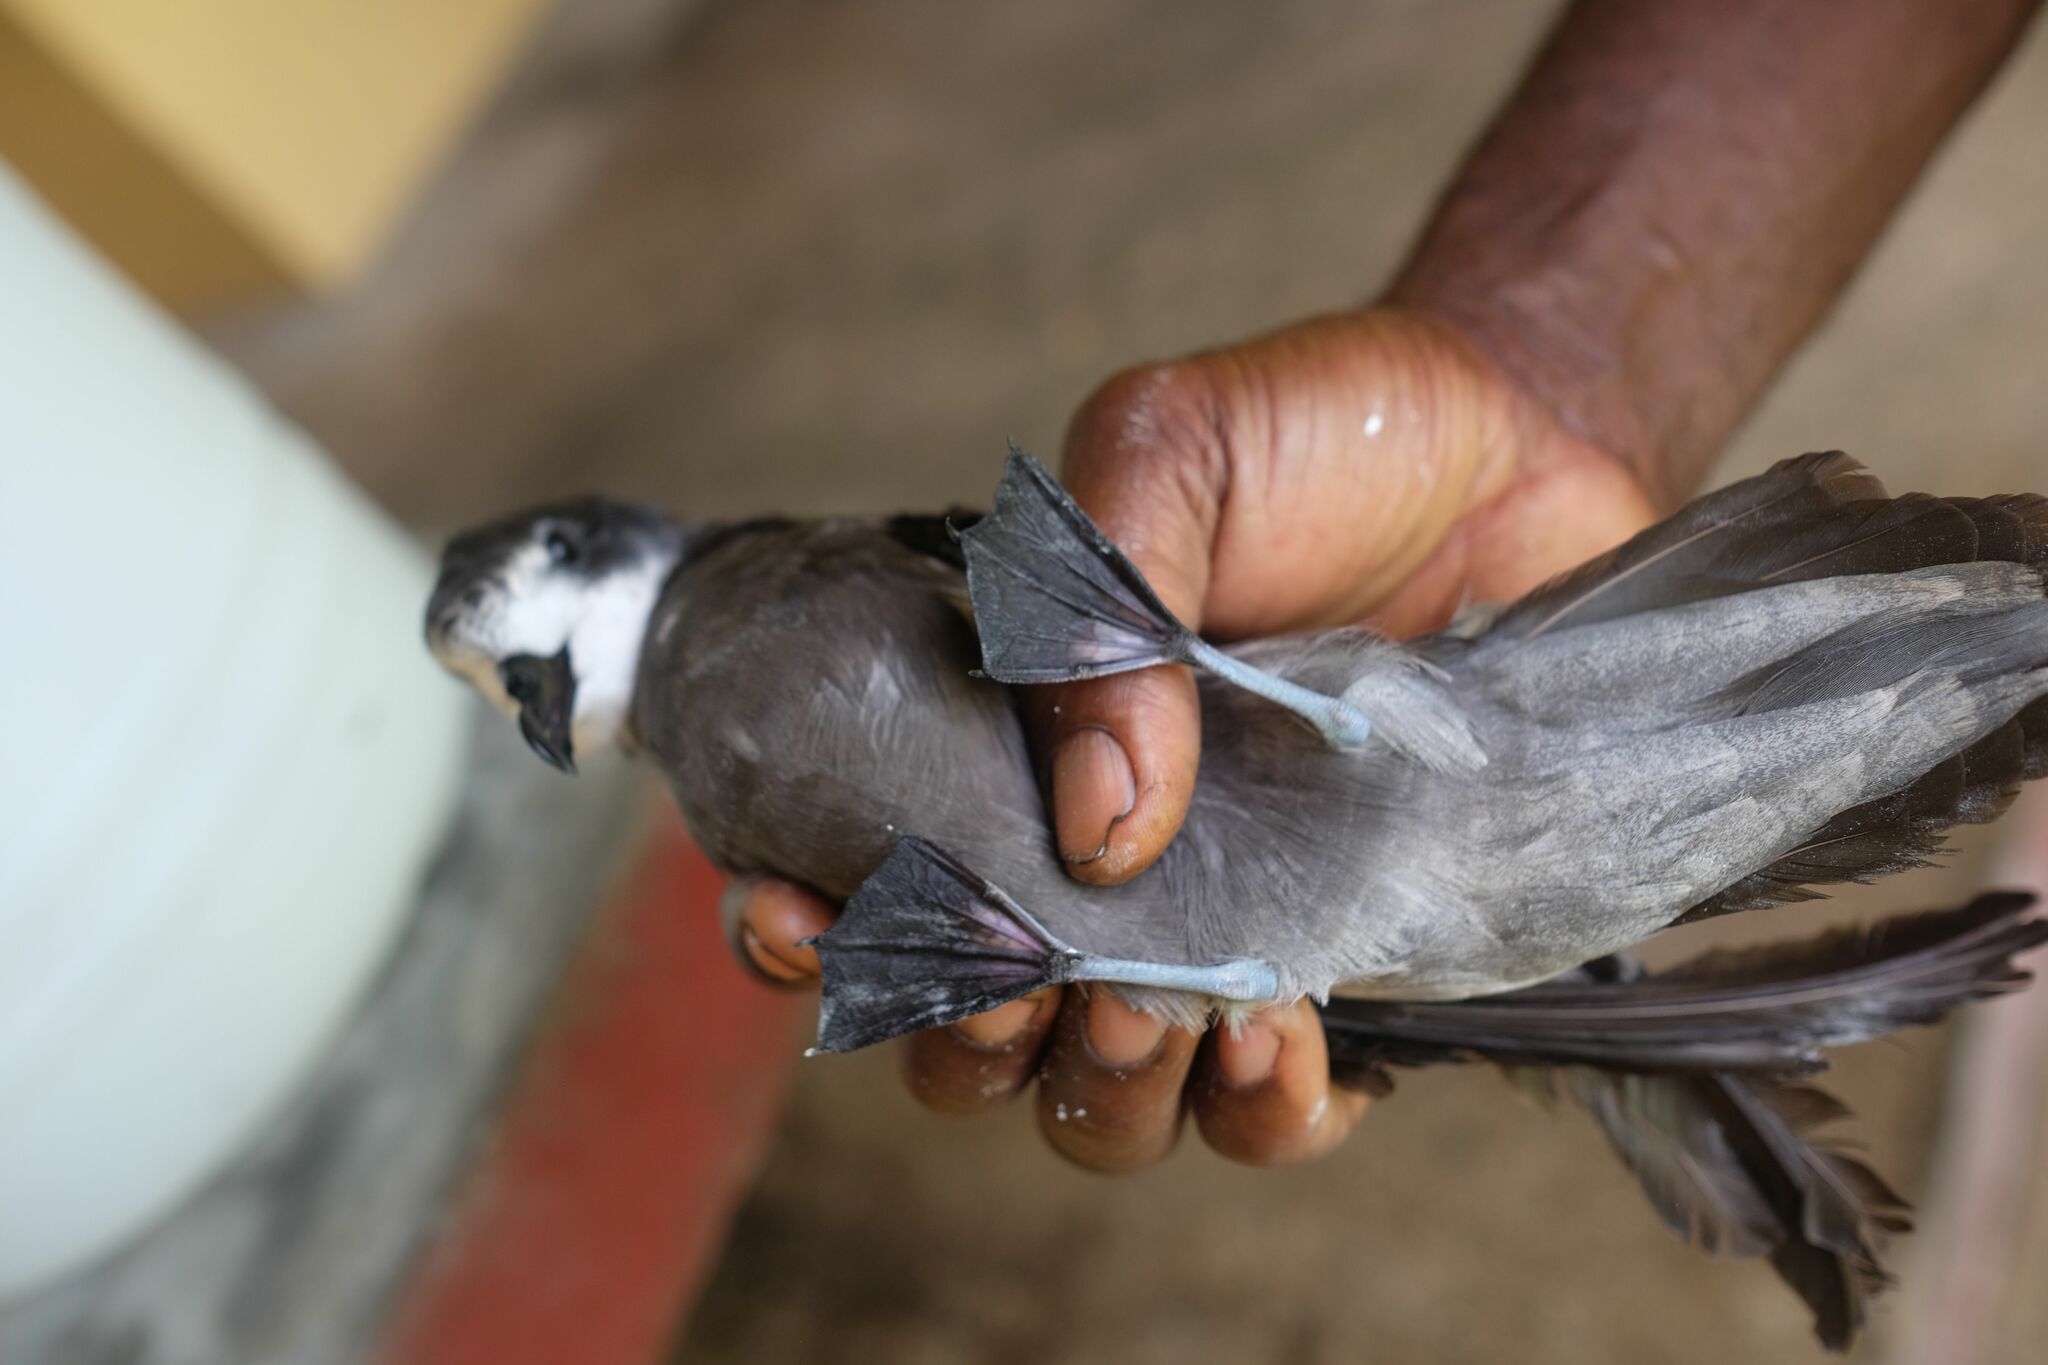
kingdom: Animalia
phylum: Chordata
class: Aves
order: Procellariiformes
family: Procellariidae
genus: Pterodroma
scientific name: Pterodroma brevipes
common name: Collared petrel
